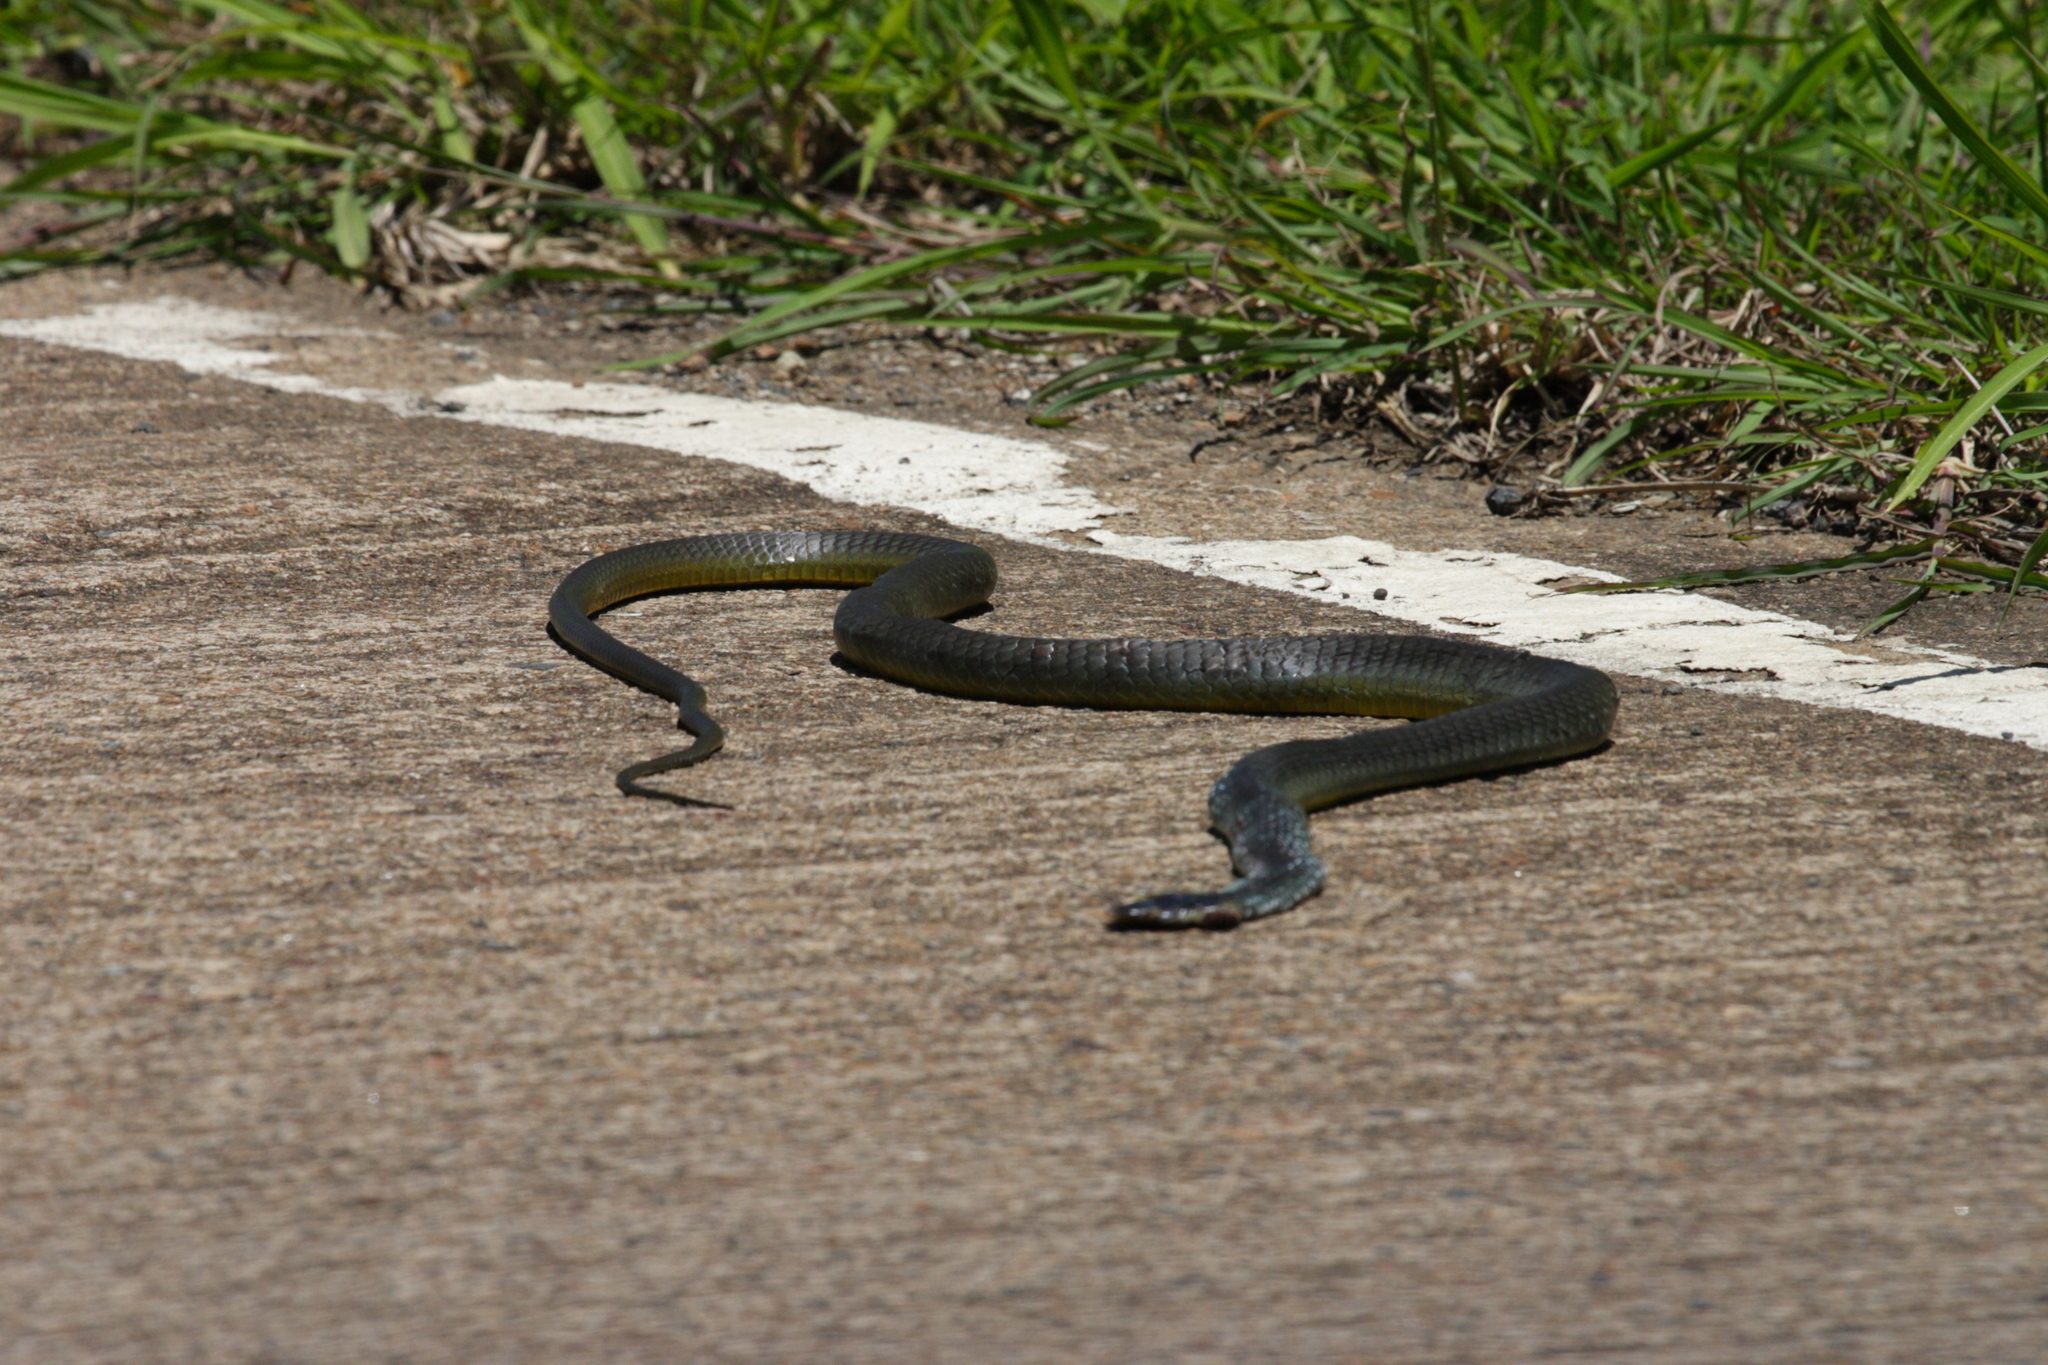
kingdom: Animalia
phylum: Chordata
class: Squamata
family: Colubridae
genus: Dendrelaphis
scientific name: Dendrelaphis punctulatus
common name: Common tree snake
